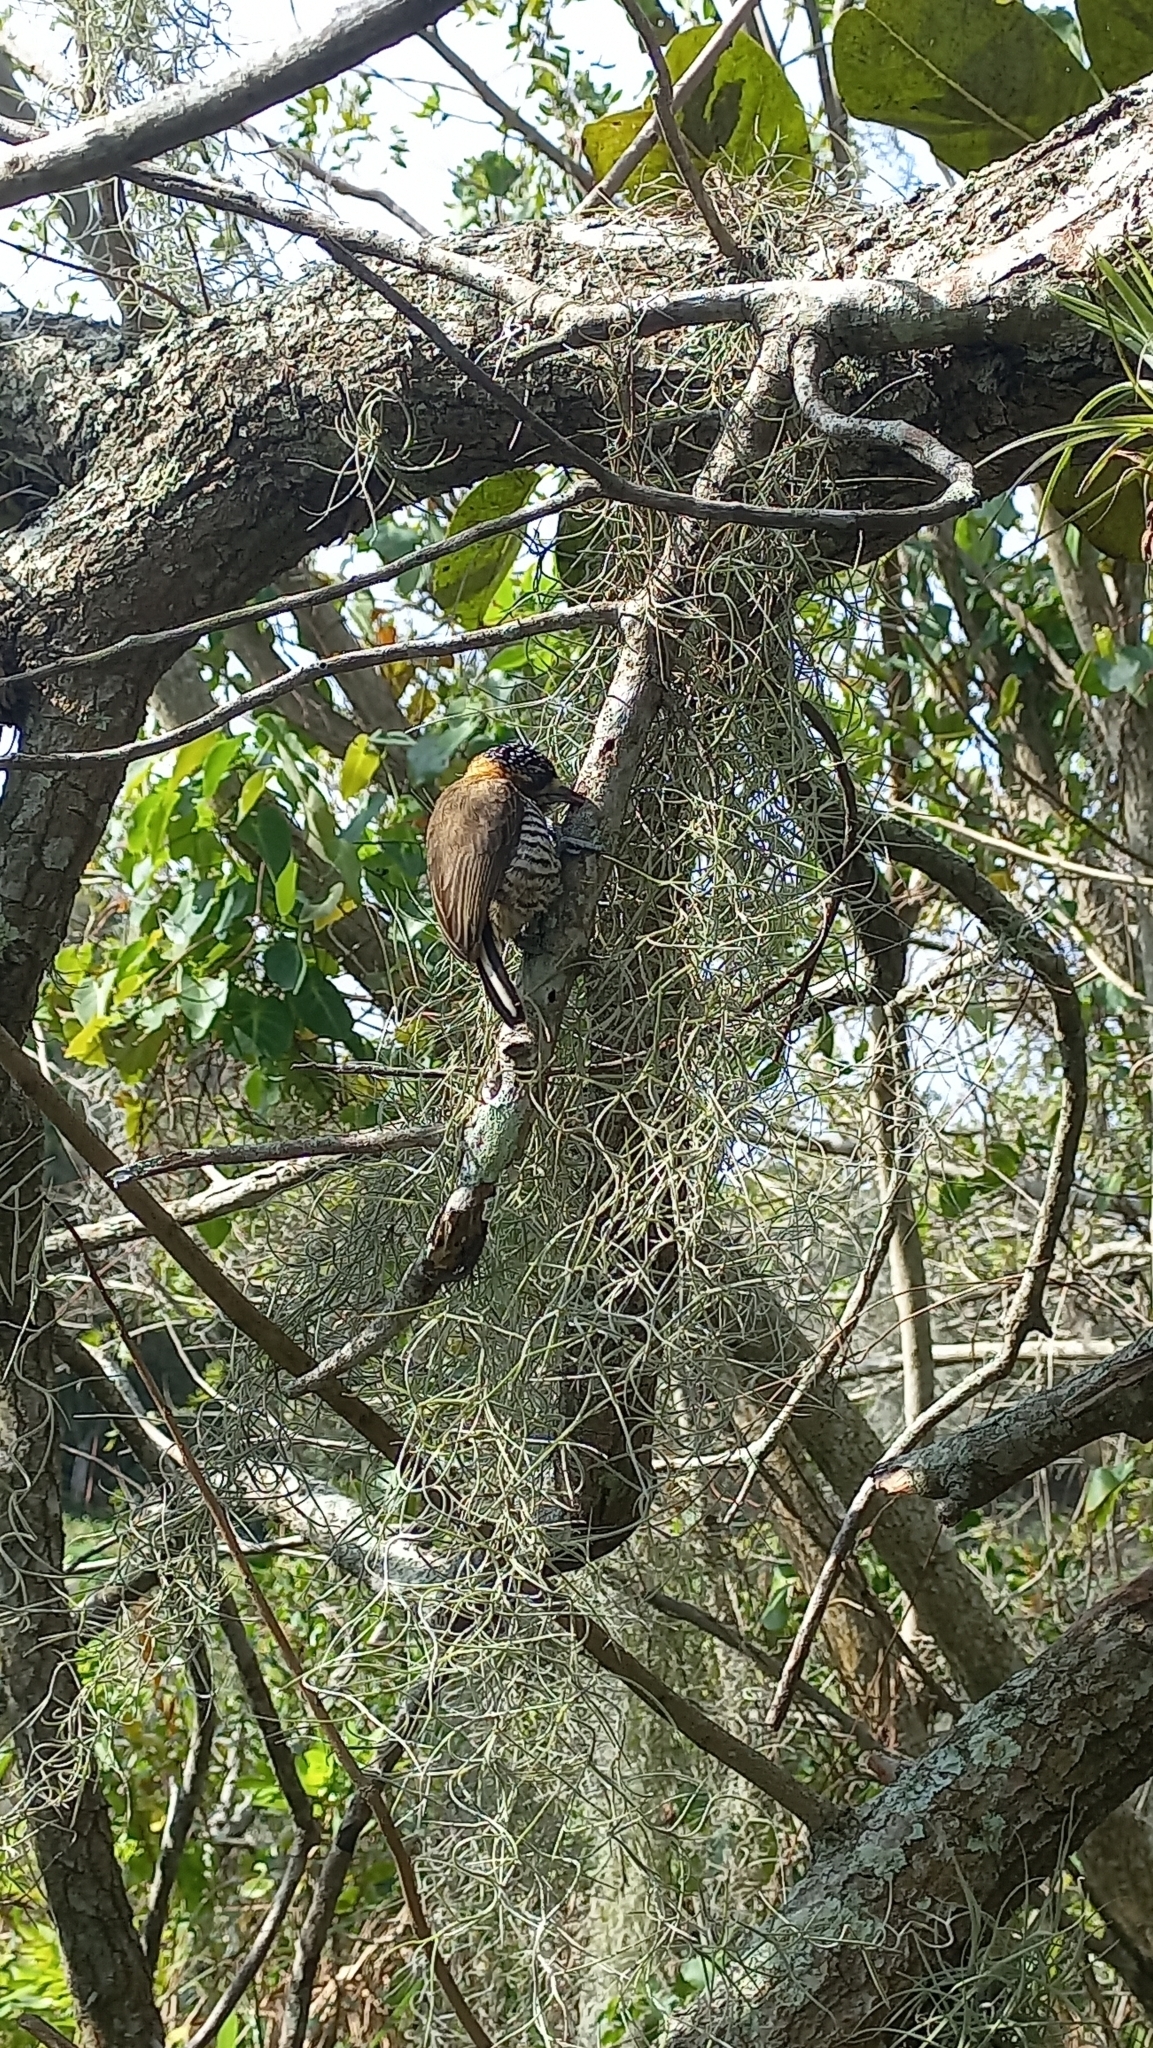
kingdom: Animalia
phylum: Chordata
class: Aves
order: Piciformes
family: Picidae
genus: Picumnus
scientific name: Picumnus temminckii
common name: Ochre-collared piculet
